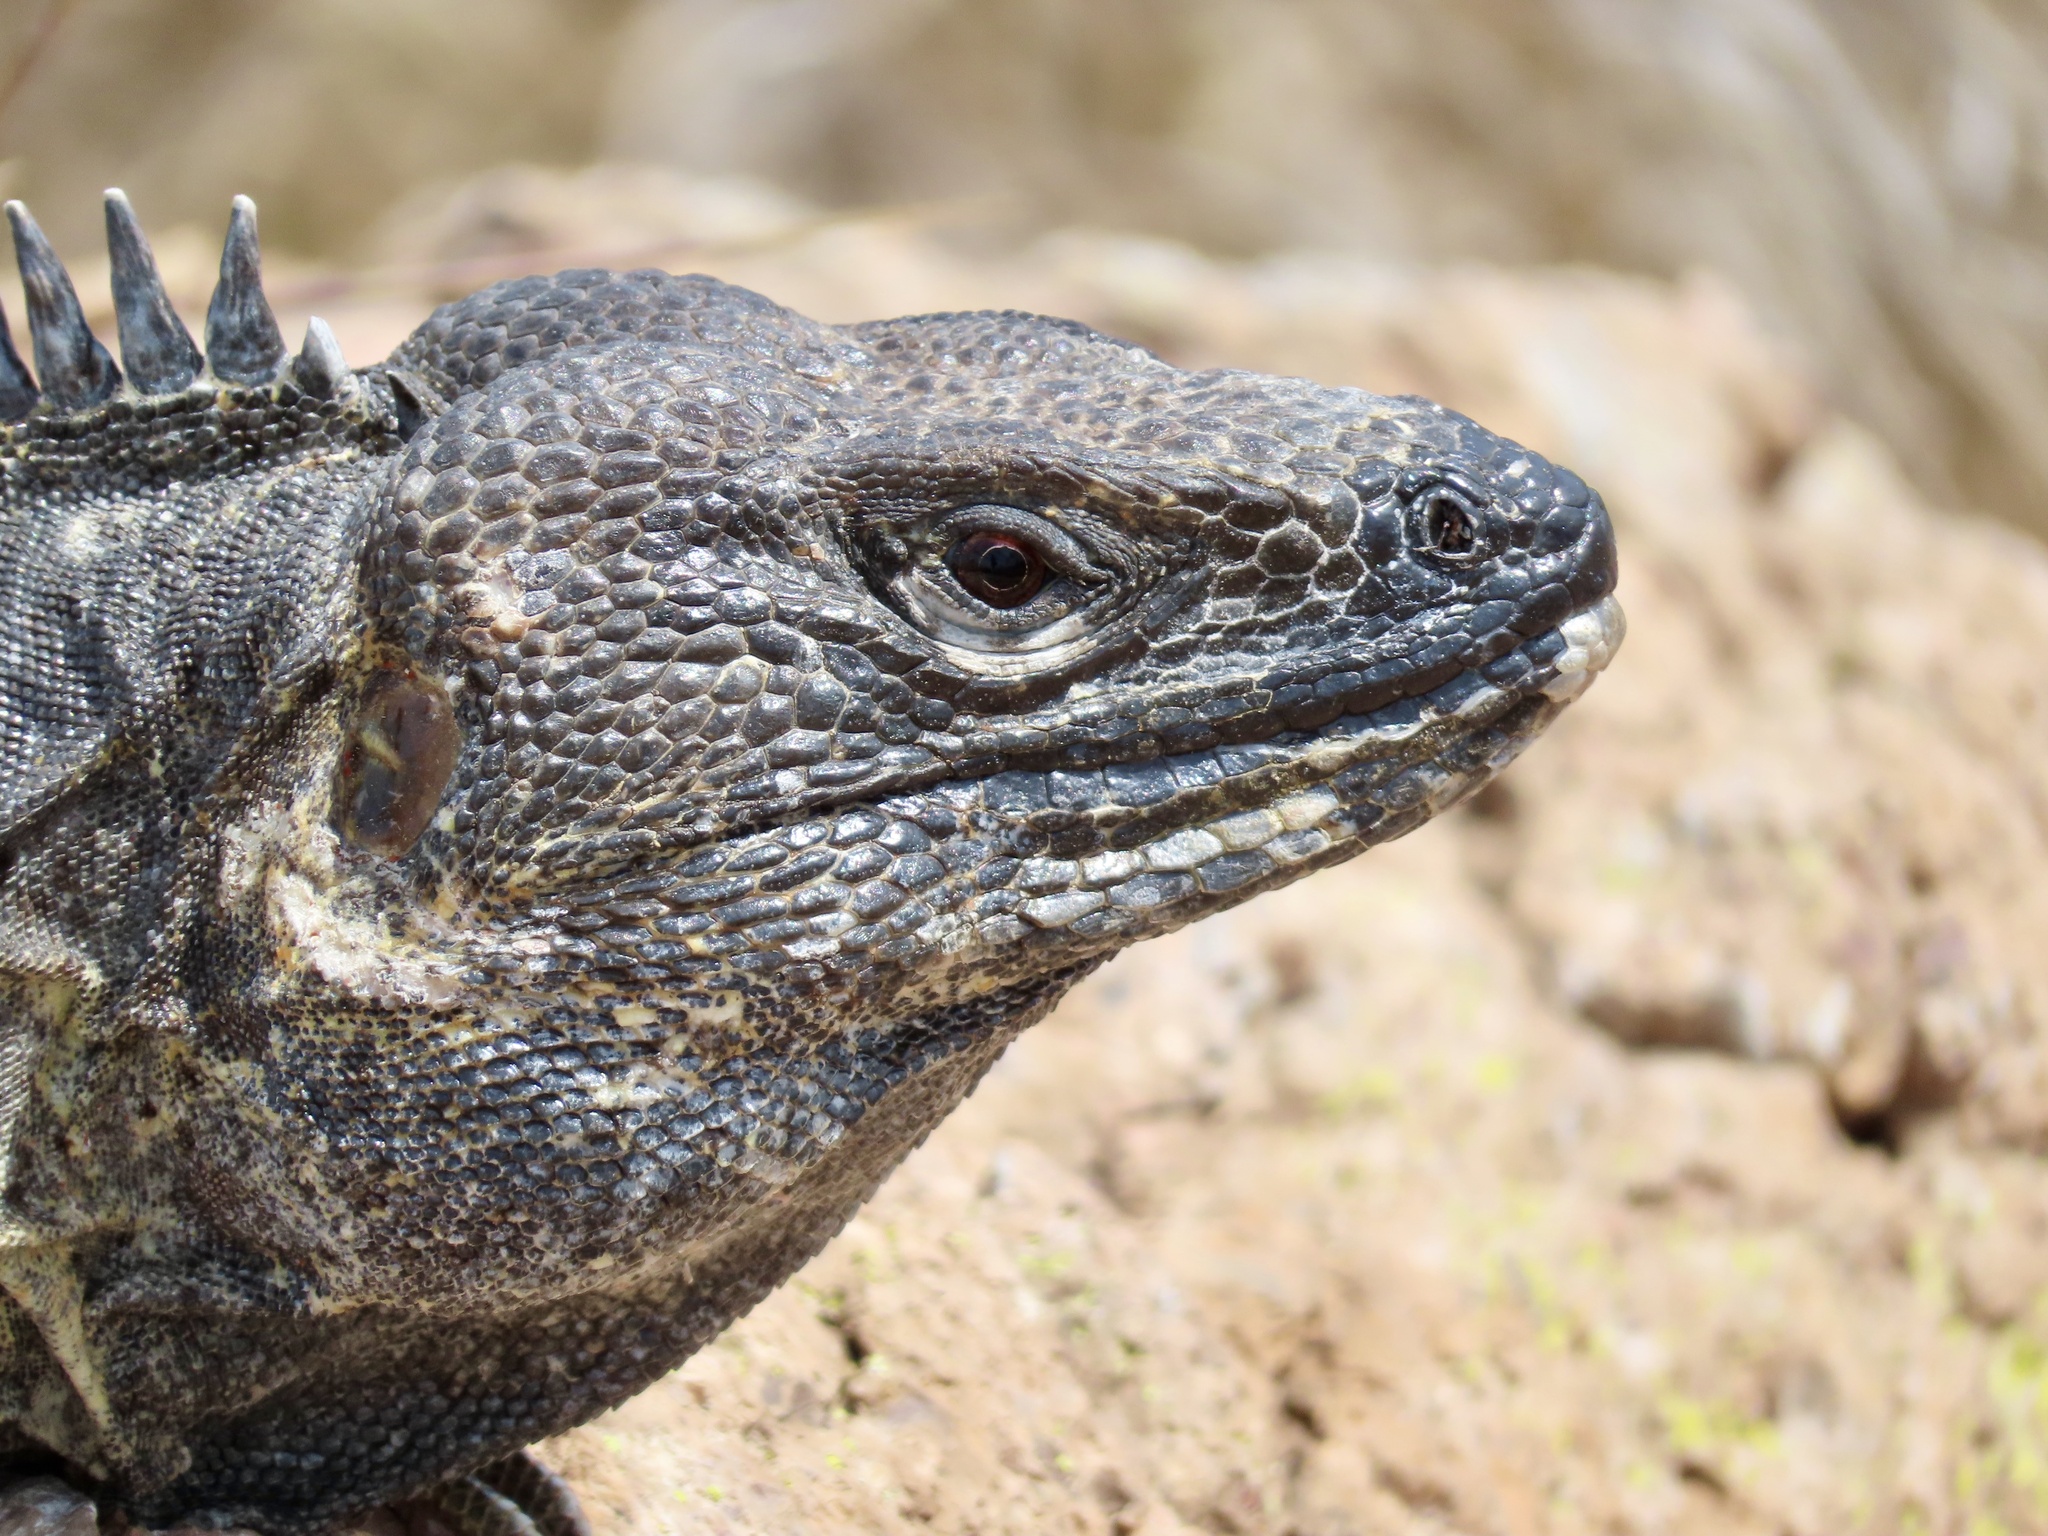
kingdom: Animalia
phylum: Chordata
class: Squamata
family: Iguanidae
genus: Ctenosaura
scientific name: Ctenosaura pectinata
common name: Guerreran spiny-tailed iguana
